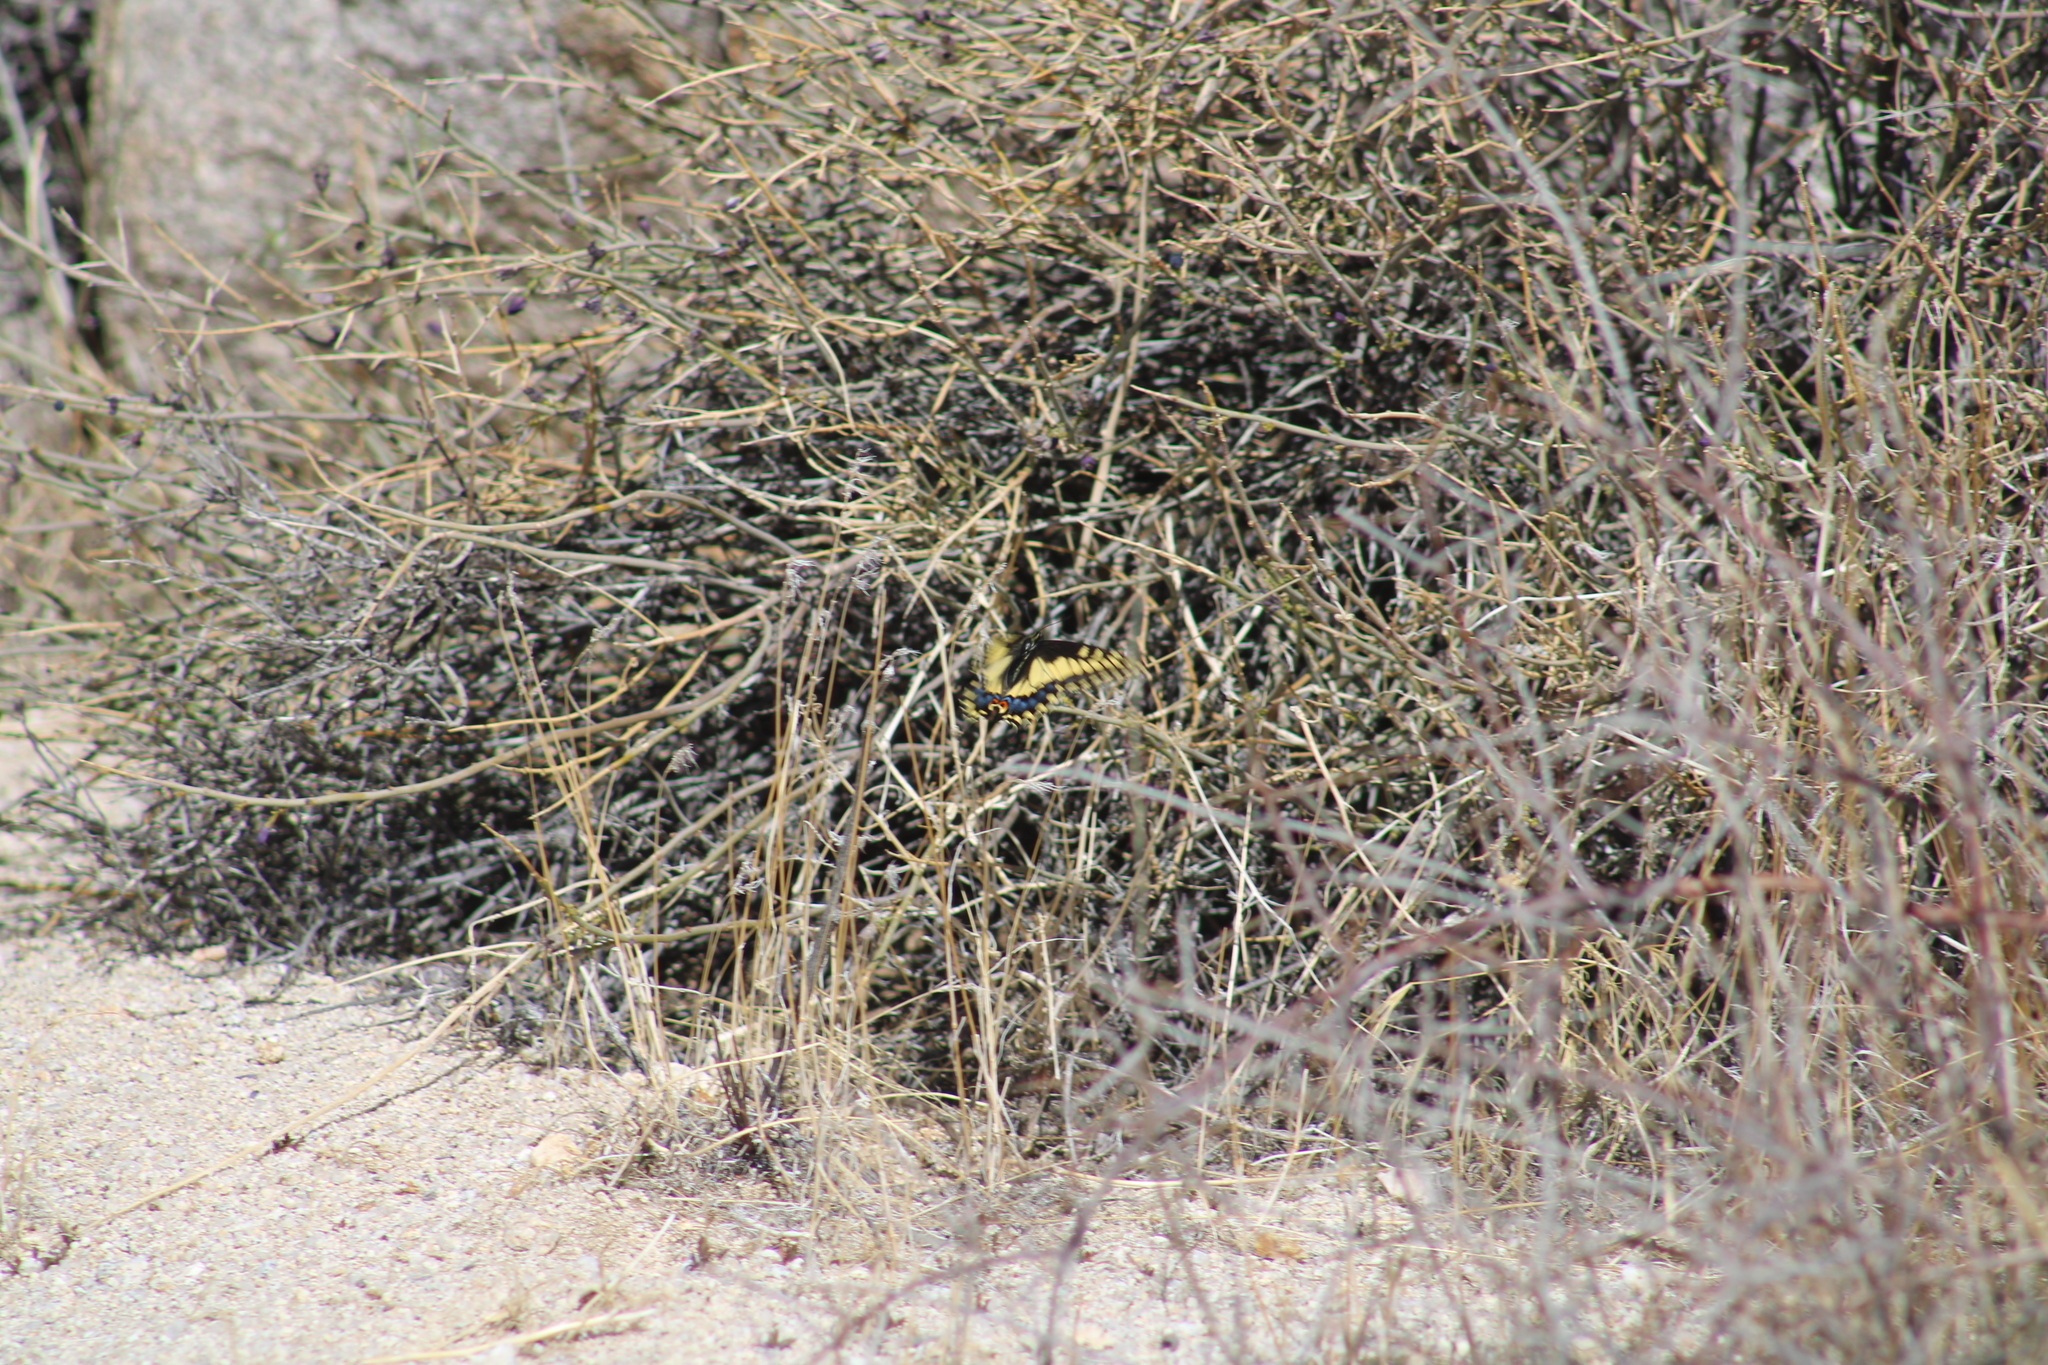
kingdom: Animalia
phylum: Arthropoda
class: Insecta
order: Lepidoptera
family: Papilionidae
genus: Papilio
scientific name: Papilio polyxenes
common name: Black swallowtail
